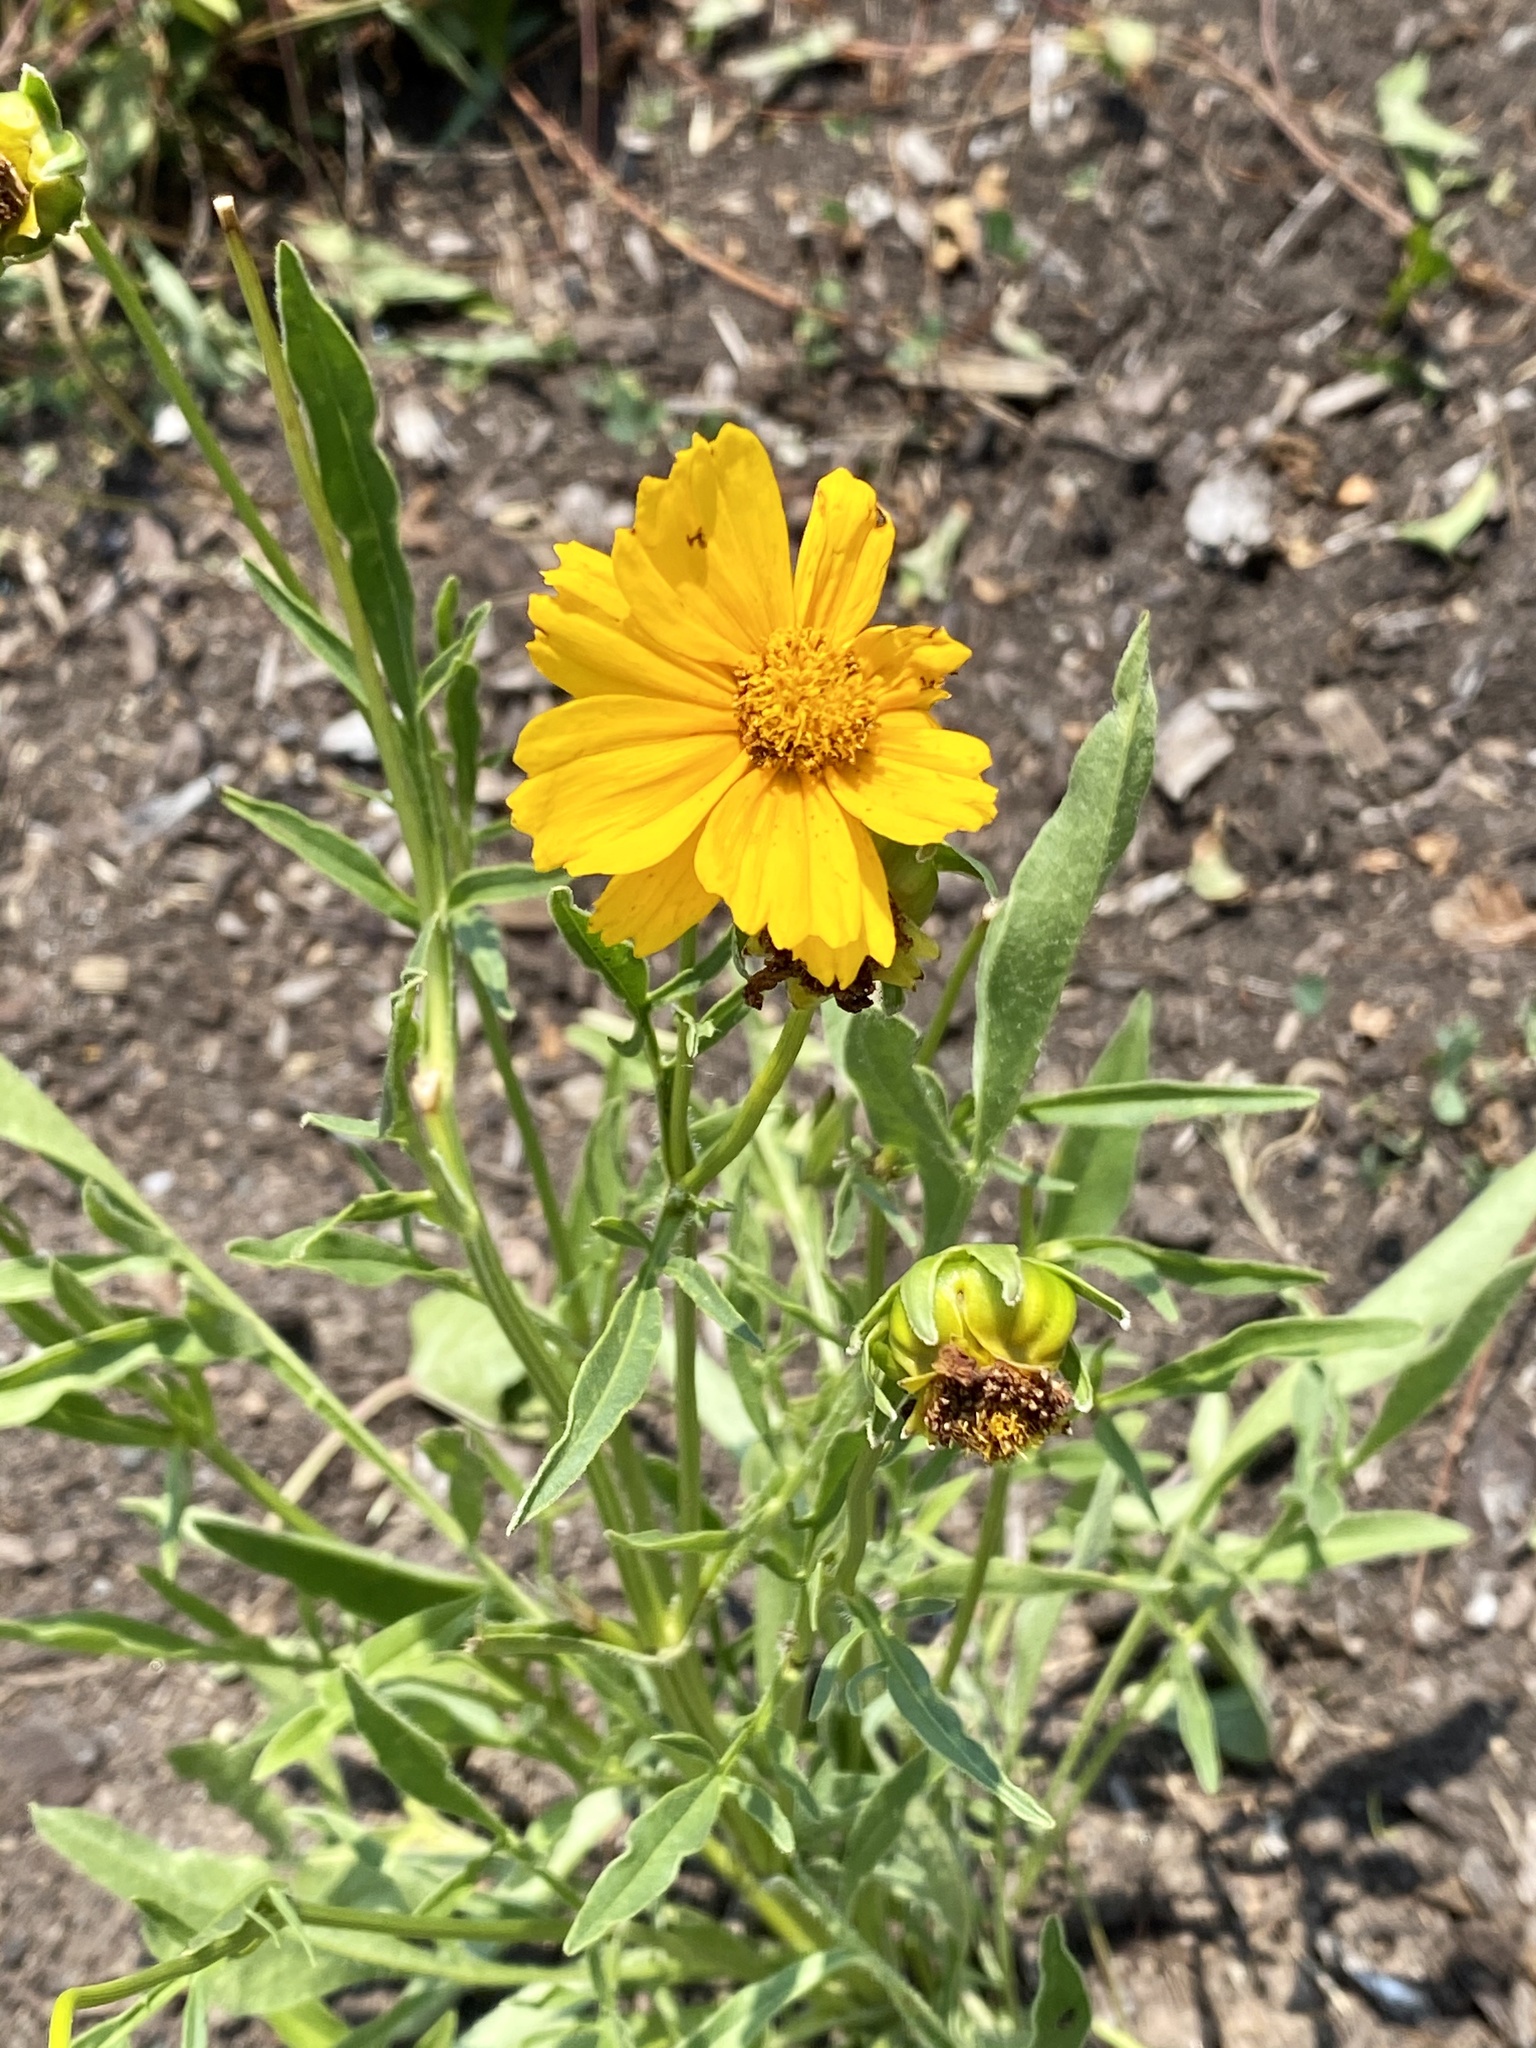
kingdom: Plantae
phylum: Tracheophyta
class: Magnoliopsida
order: Asterales
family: Asteraceae
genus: Coreopsis
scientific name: Coreopsis lanceolata
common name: Garden coreopsis
